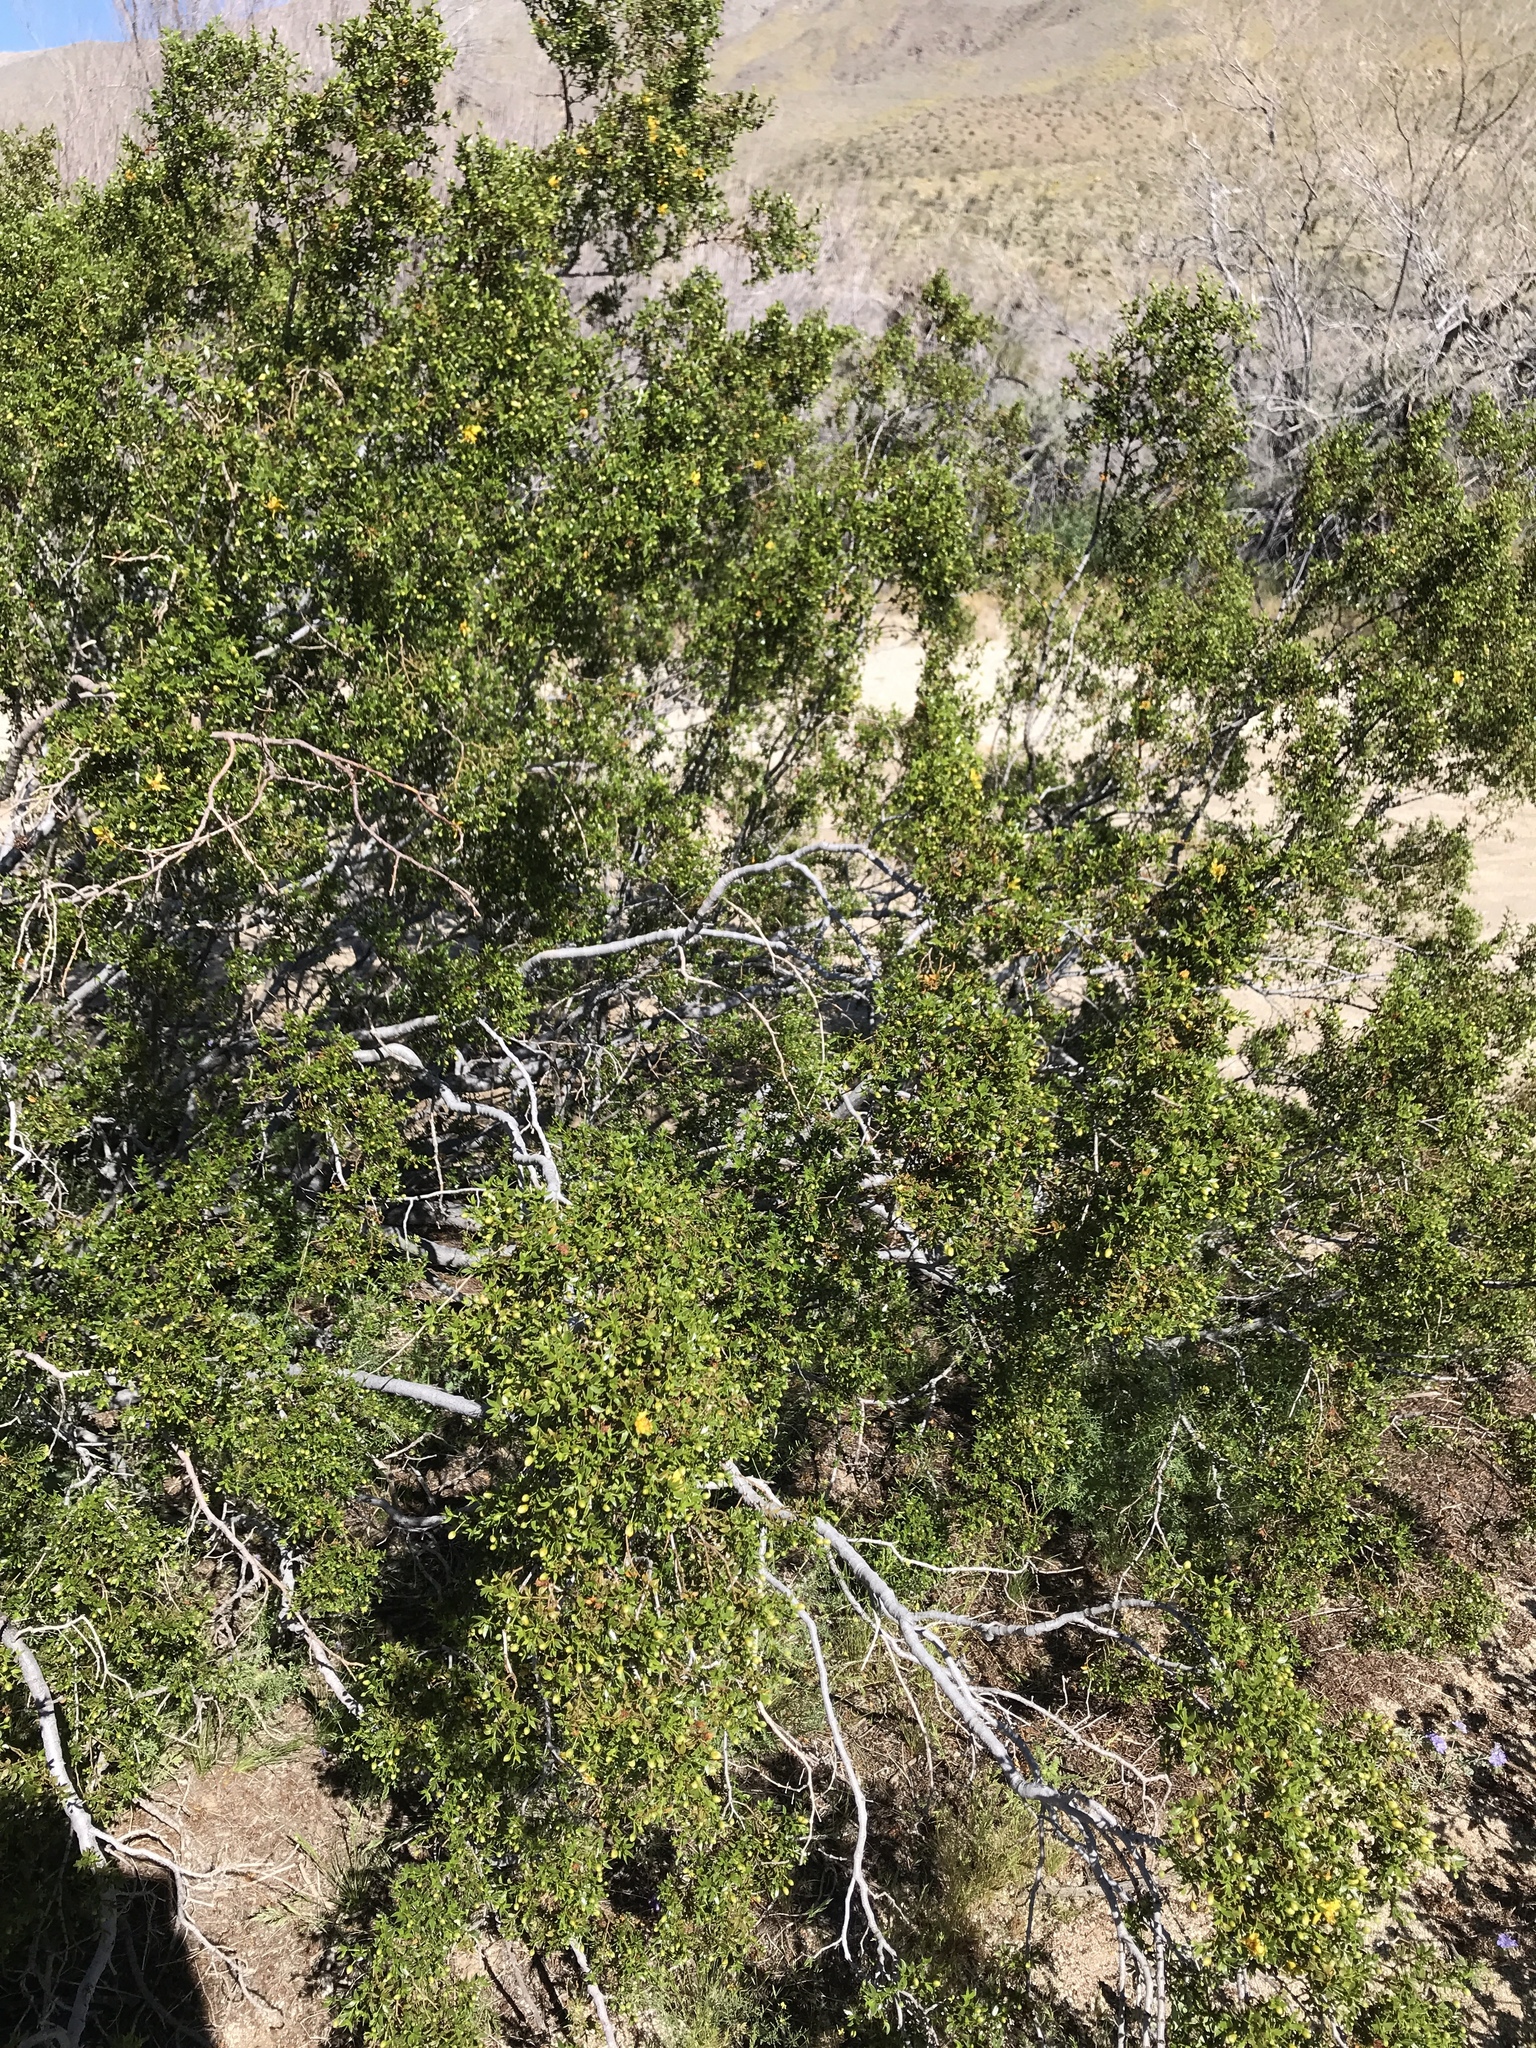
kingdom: Plantae
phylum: Tracheophyta
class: Magnoliopsida
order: Zygophyllales
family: Zygophyllaceae
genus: Larrea
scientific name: Larrea tridentata
